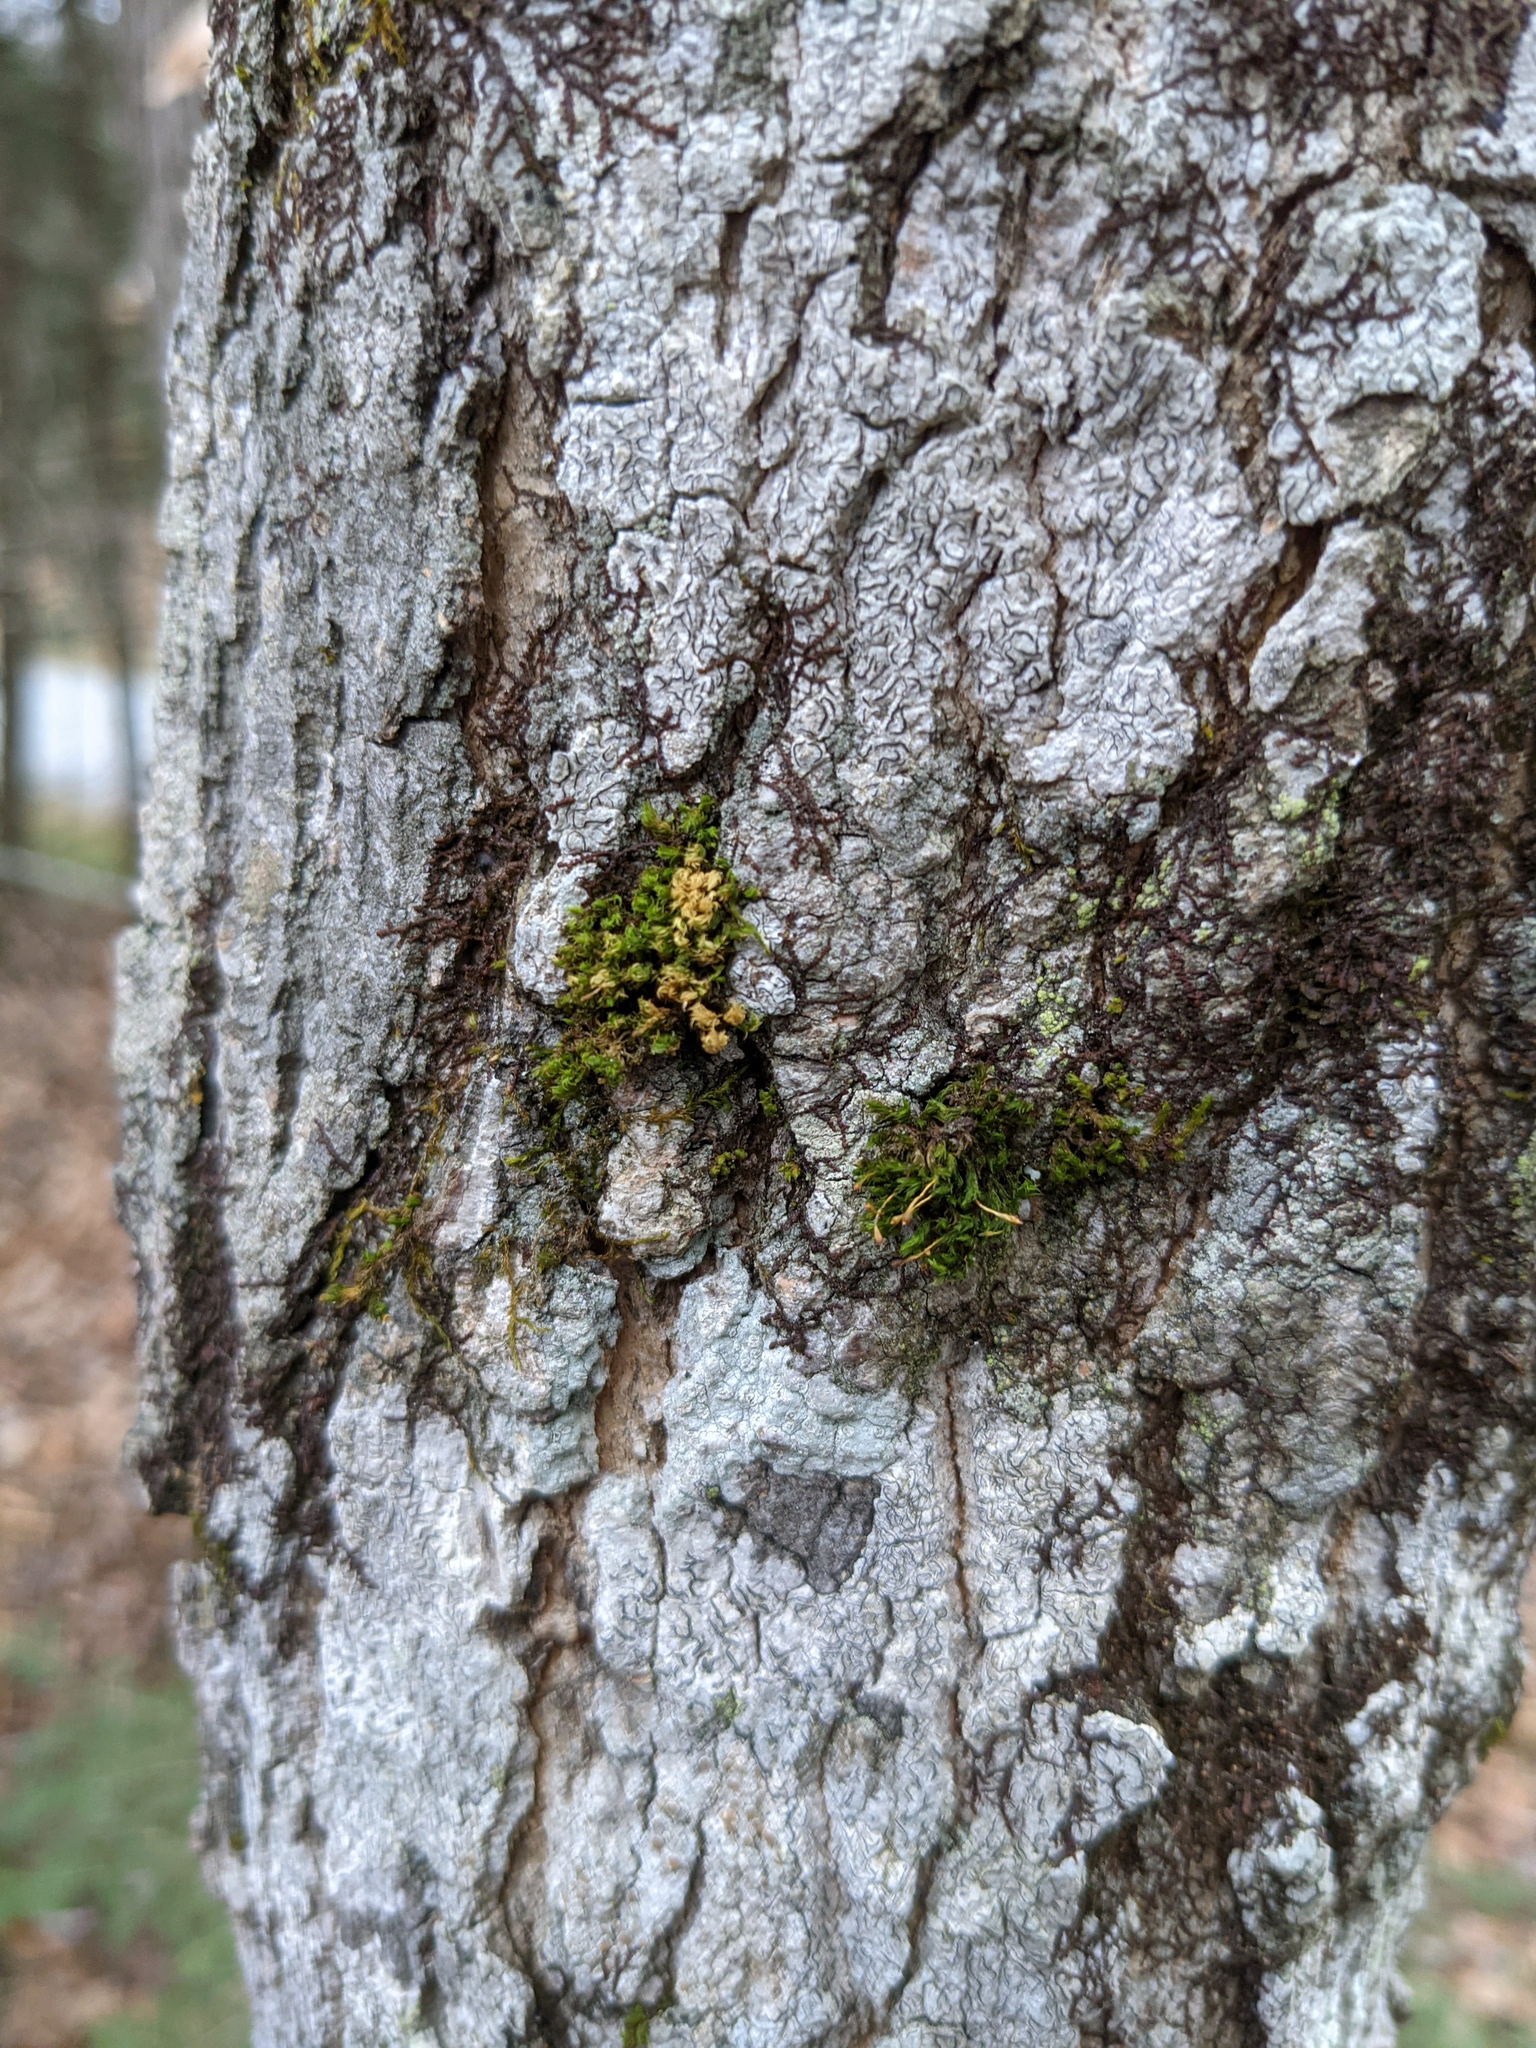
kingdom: Plantae
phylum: Bryophyta
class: Bryopsida
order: Orthotrichales
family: Orthotrichaceae
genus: Ulota
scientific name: Ulota crispa
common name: Crisped pincushion moss
